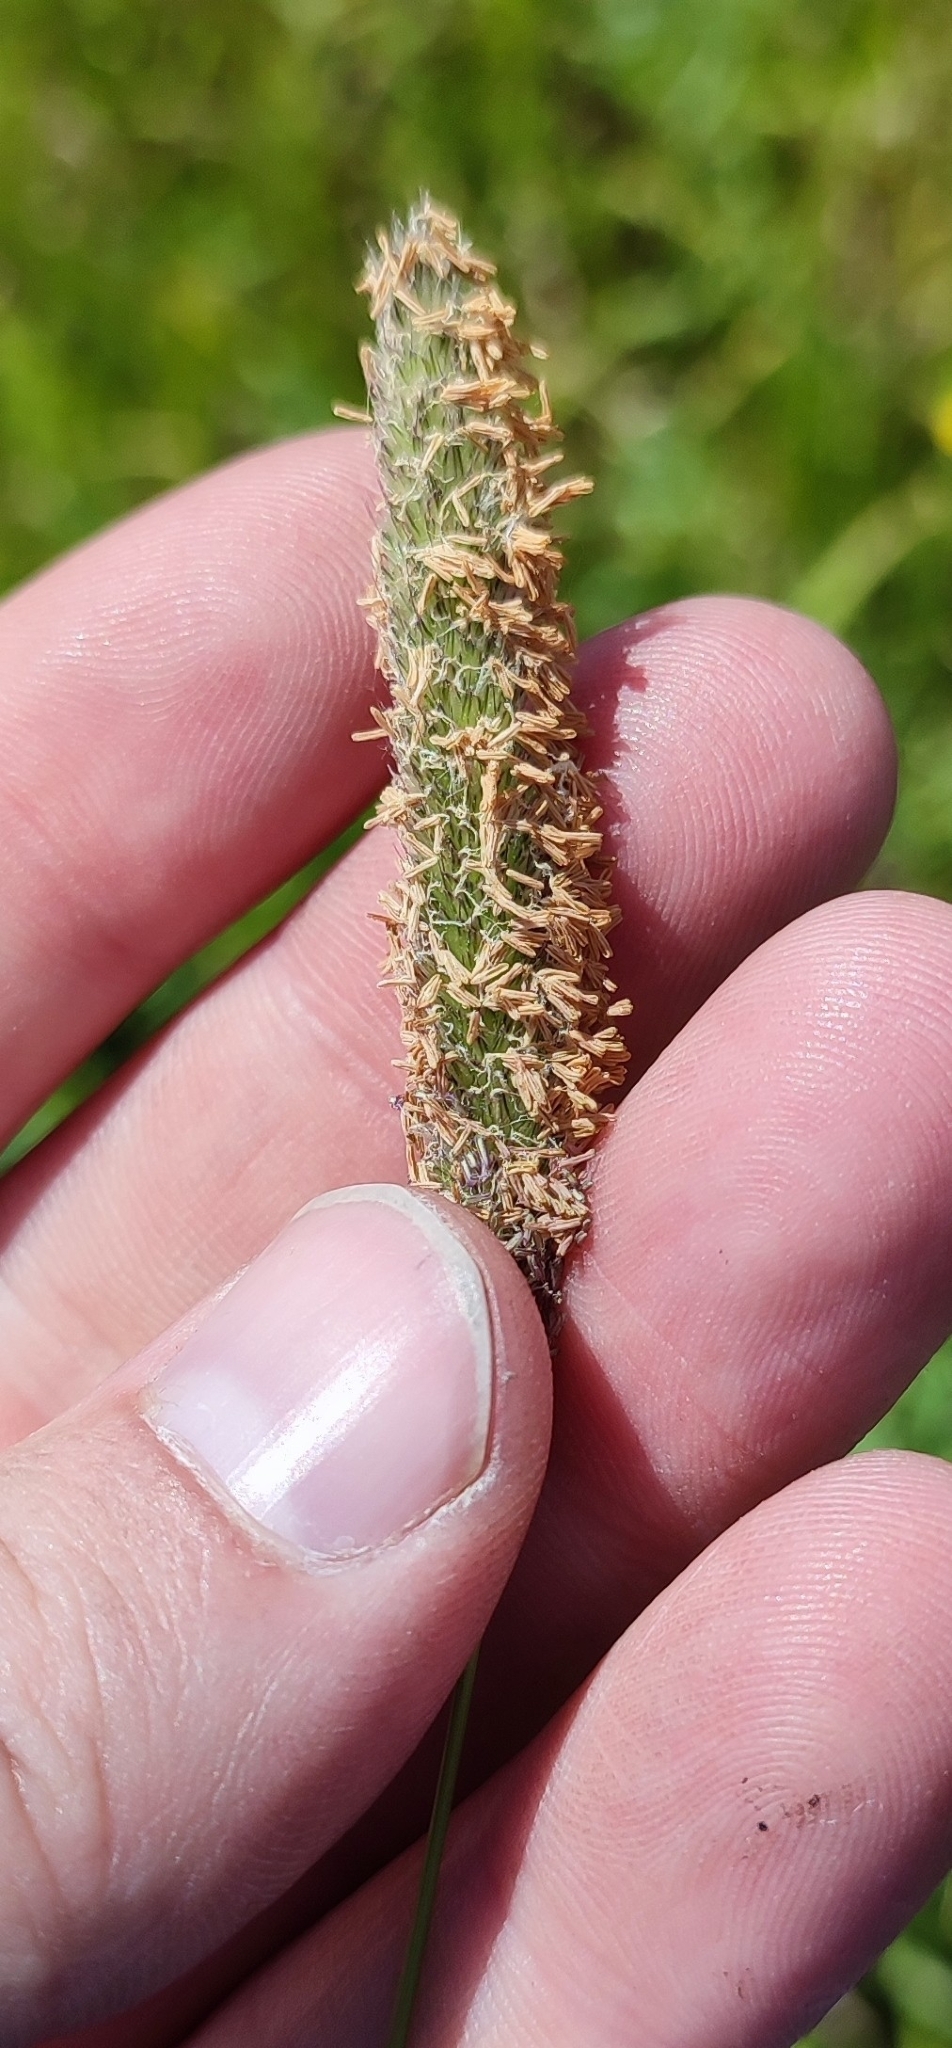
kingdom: Plantae
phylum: Tracheophyta
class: Liliopsida
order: Poales
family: Poaceae
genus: Alopecurus
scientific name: Alopecurus pratensis
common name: Meadow foxtail
